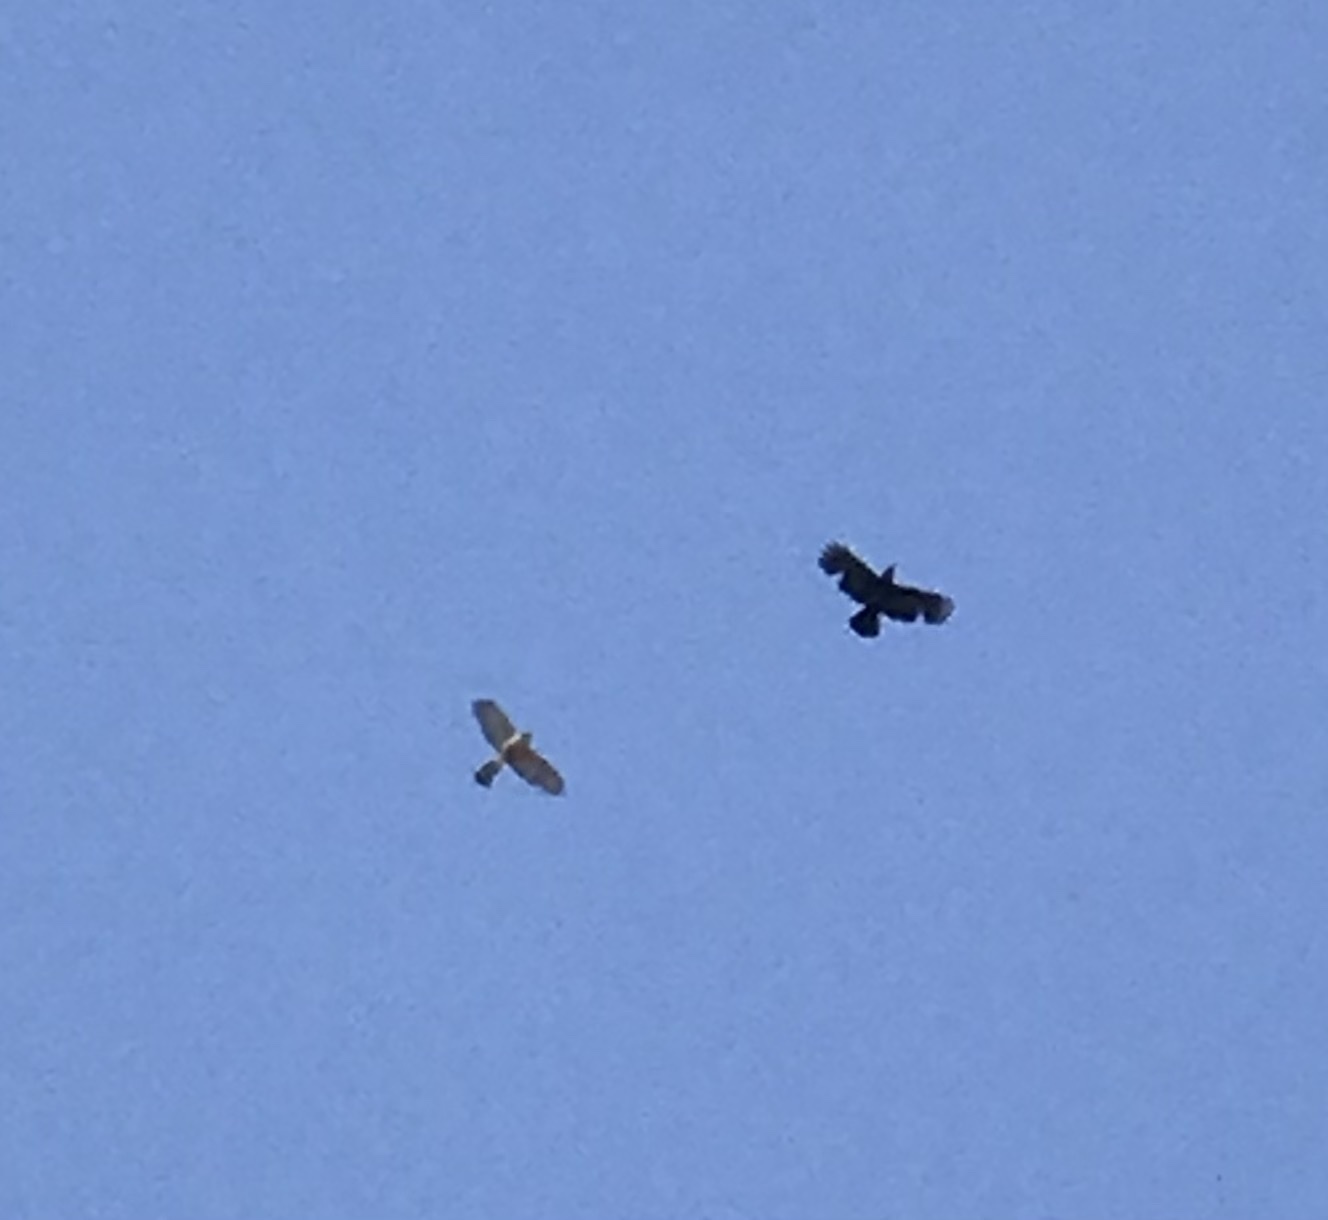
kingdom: Animalia
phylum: Chordata
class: Aves
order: Accipitriformes
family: Accipitridae
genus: Accipiter
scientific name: Accipiter cooperii
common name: Cooper's hawk
